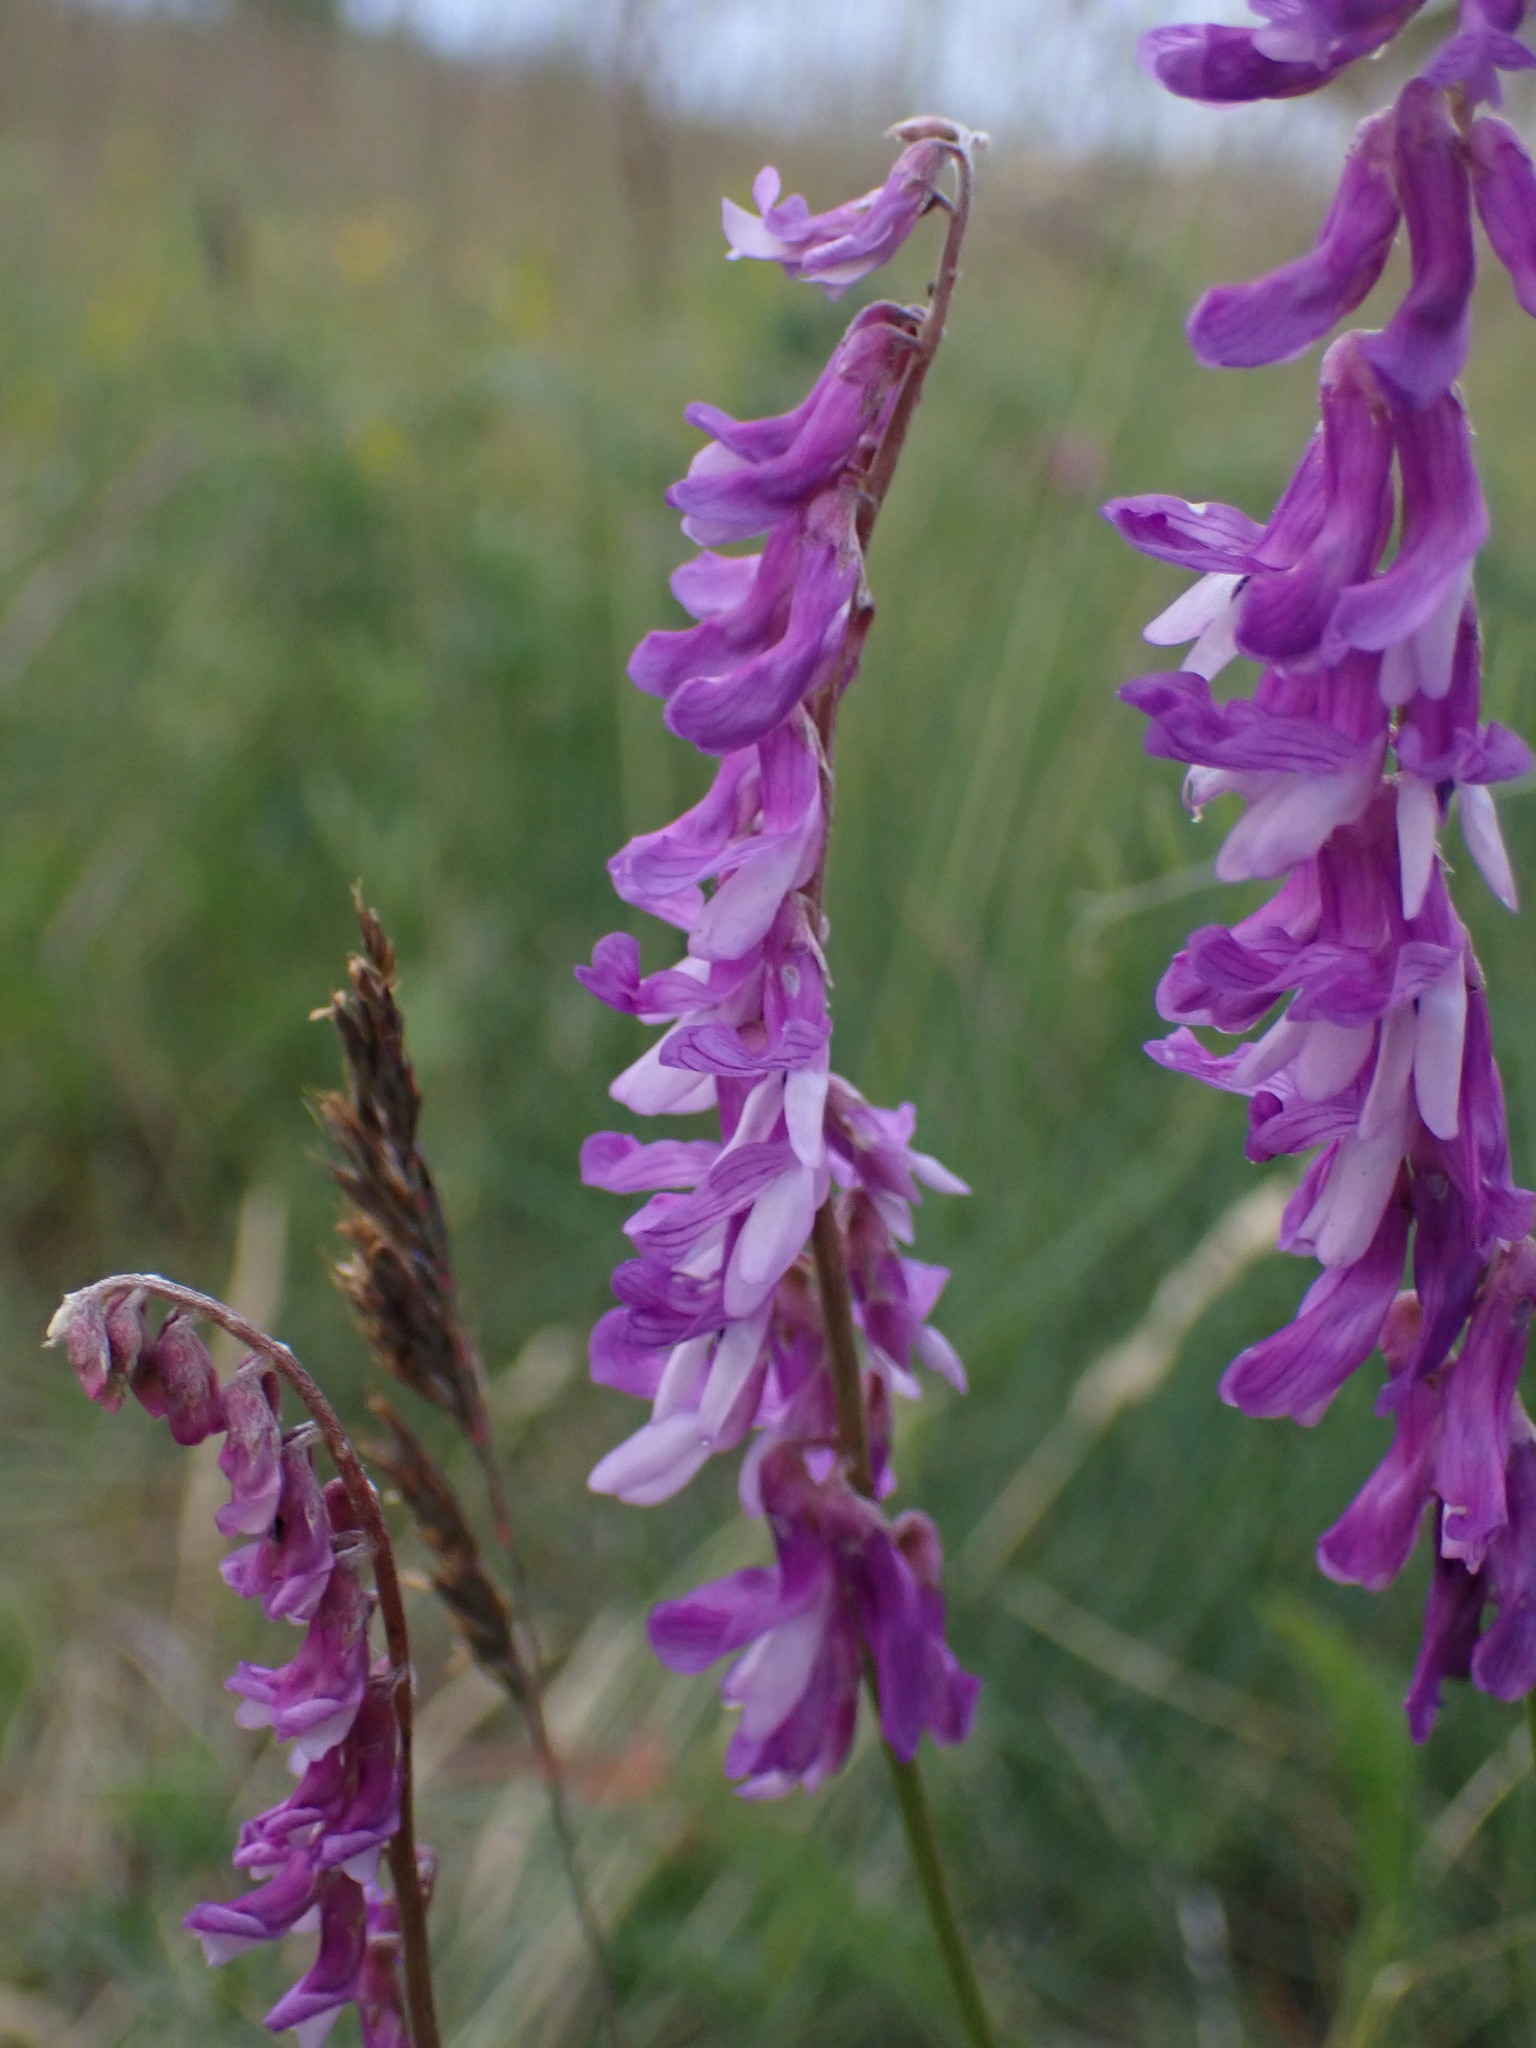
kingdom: Plantae
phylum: Tracheophyta
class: Magnoliopsida
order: Fabales
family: Fabaceae
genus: Vicia
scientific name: Vicia tenuifolia
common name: Fine-leaved vetch
